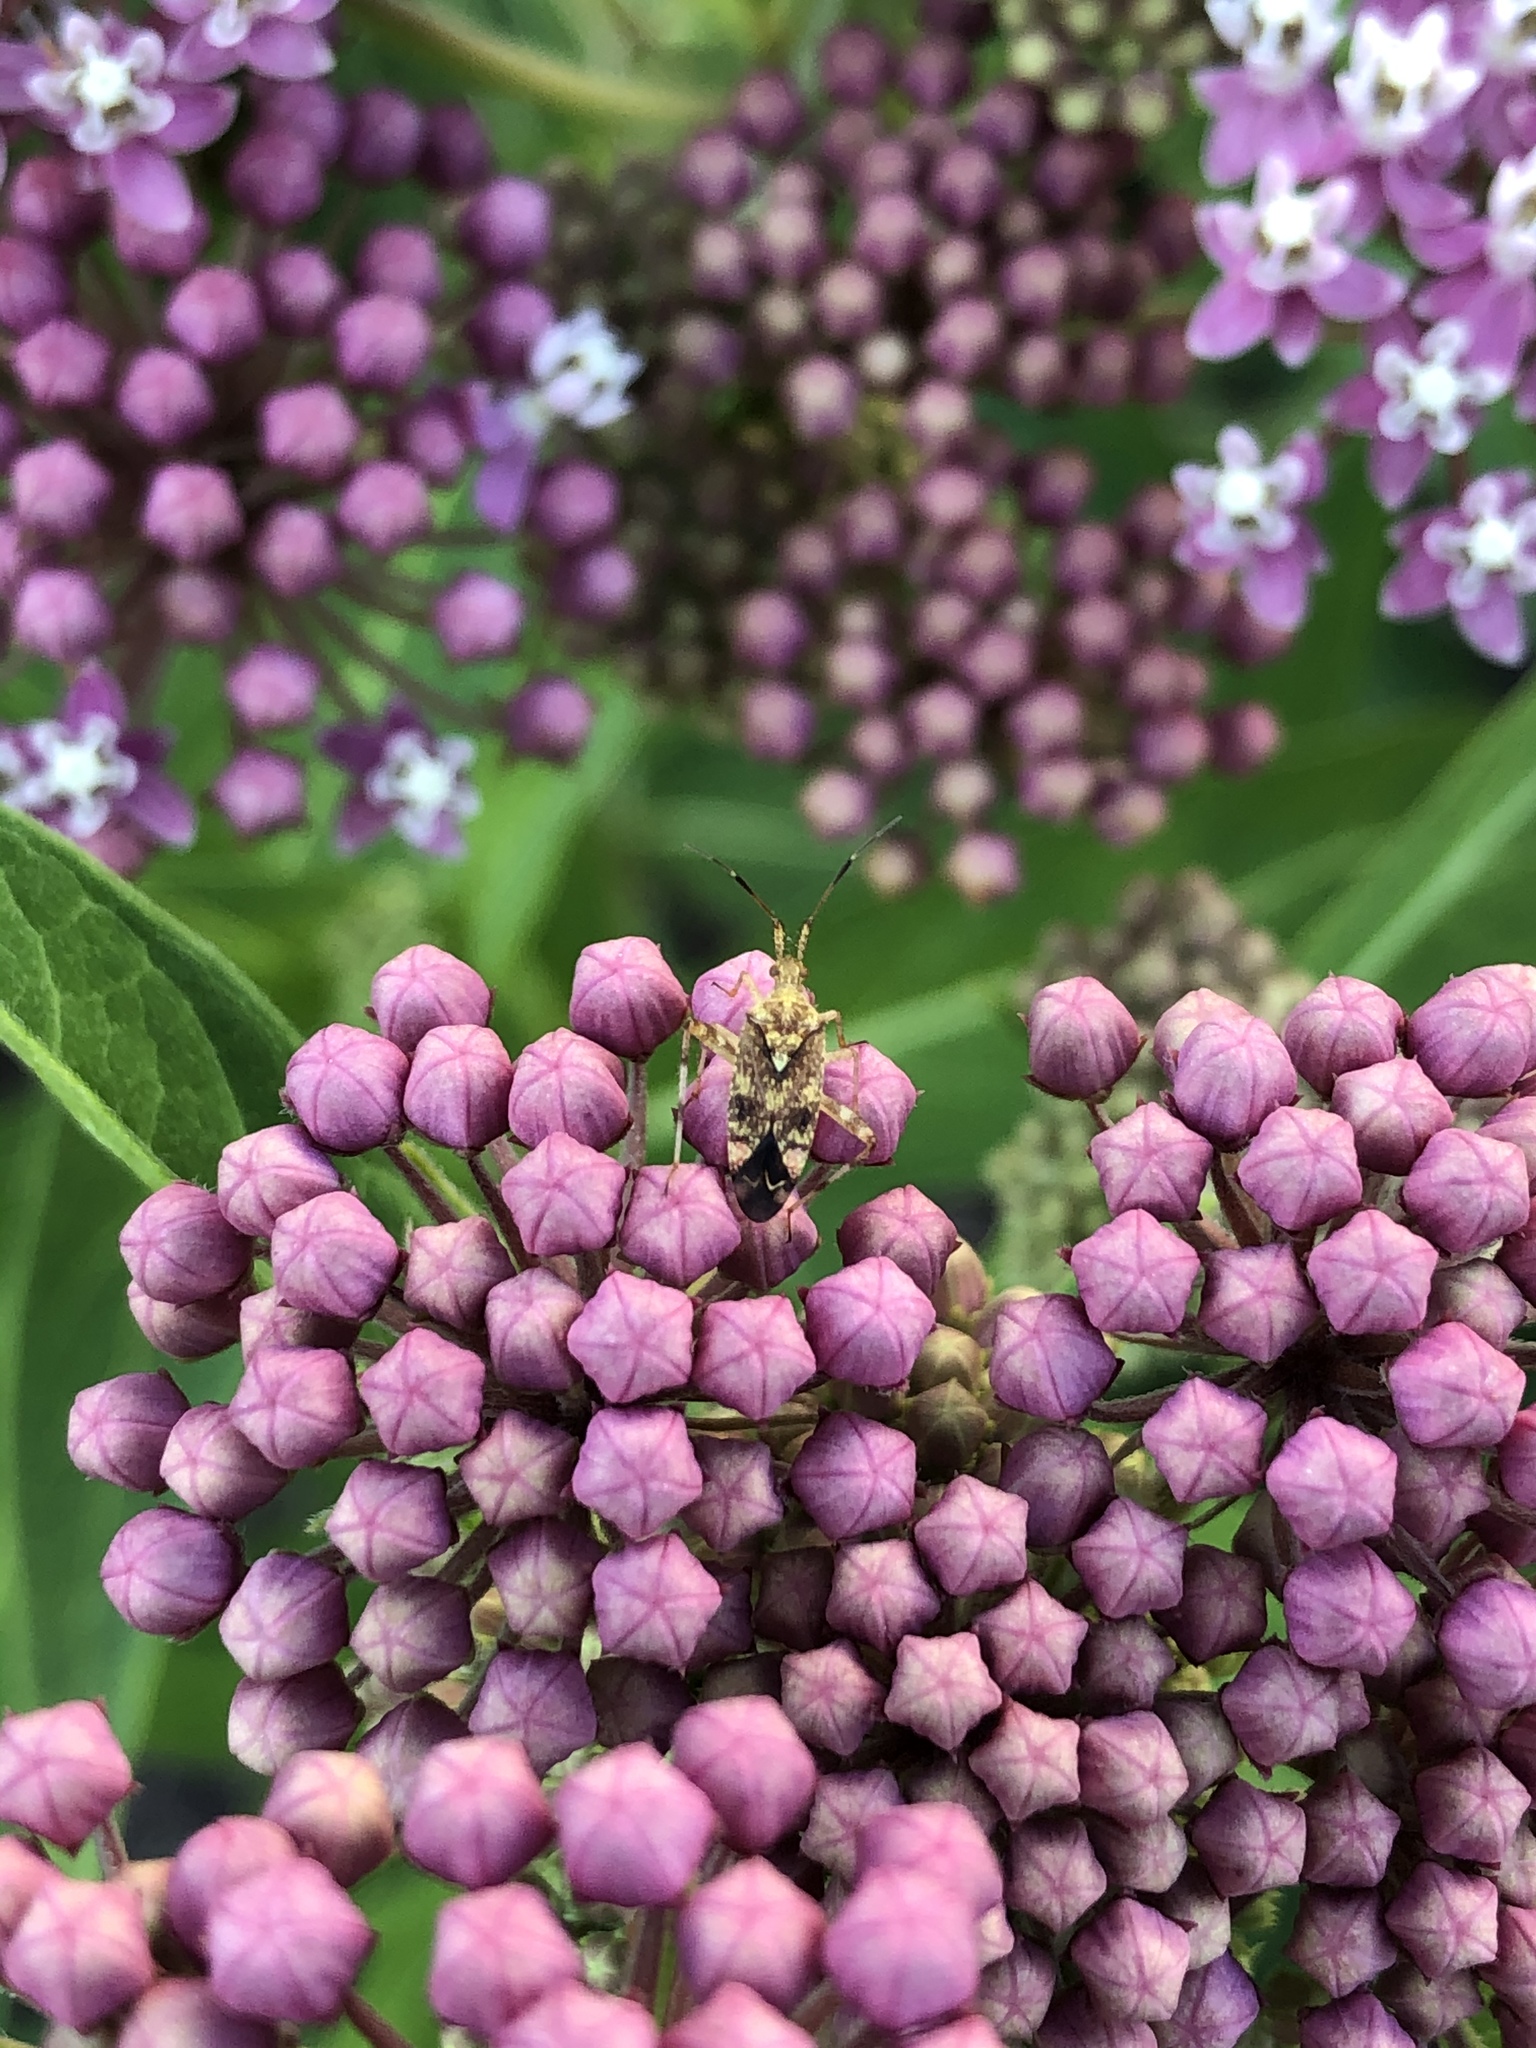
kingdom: Animalia
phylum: Arthropoda
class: Insecta
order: Hemiptera
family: Miridae
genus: Neurocolpus
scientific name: Neurocolpus nubilus
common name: Clouded plant bug
